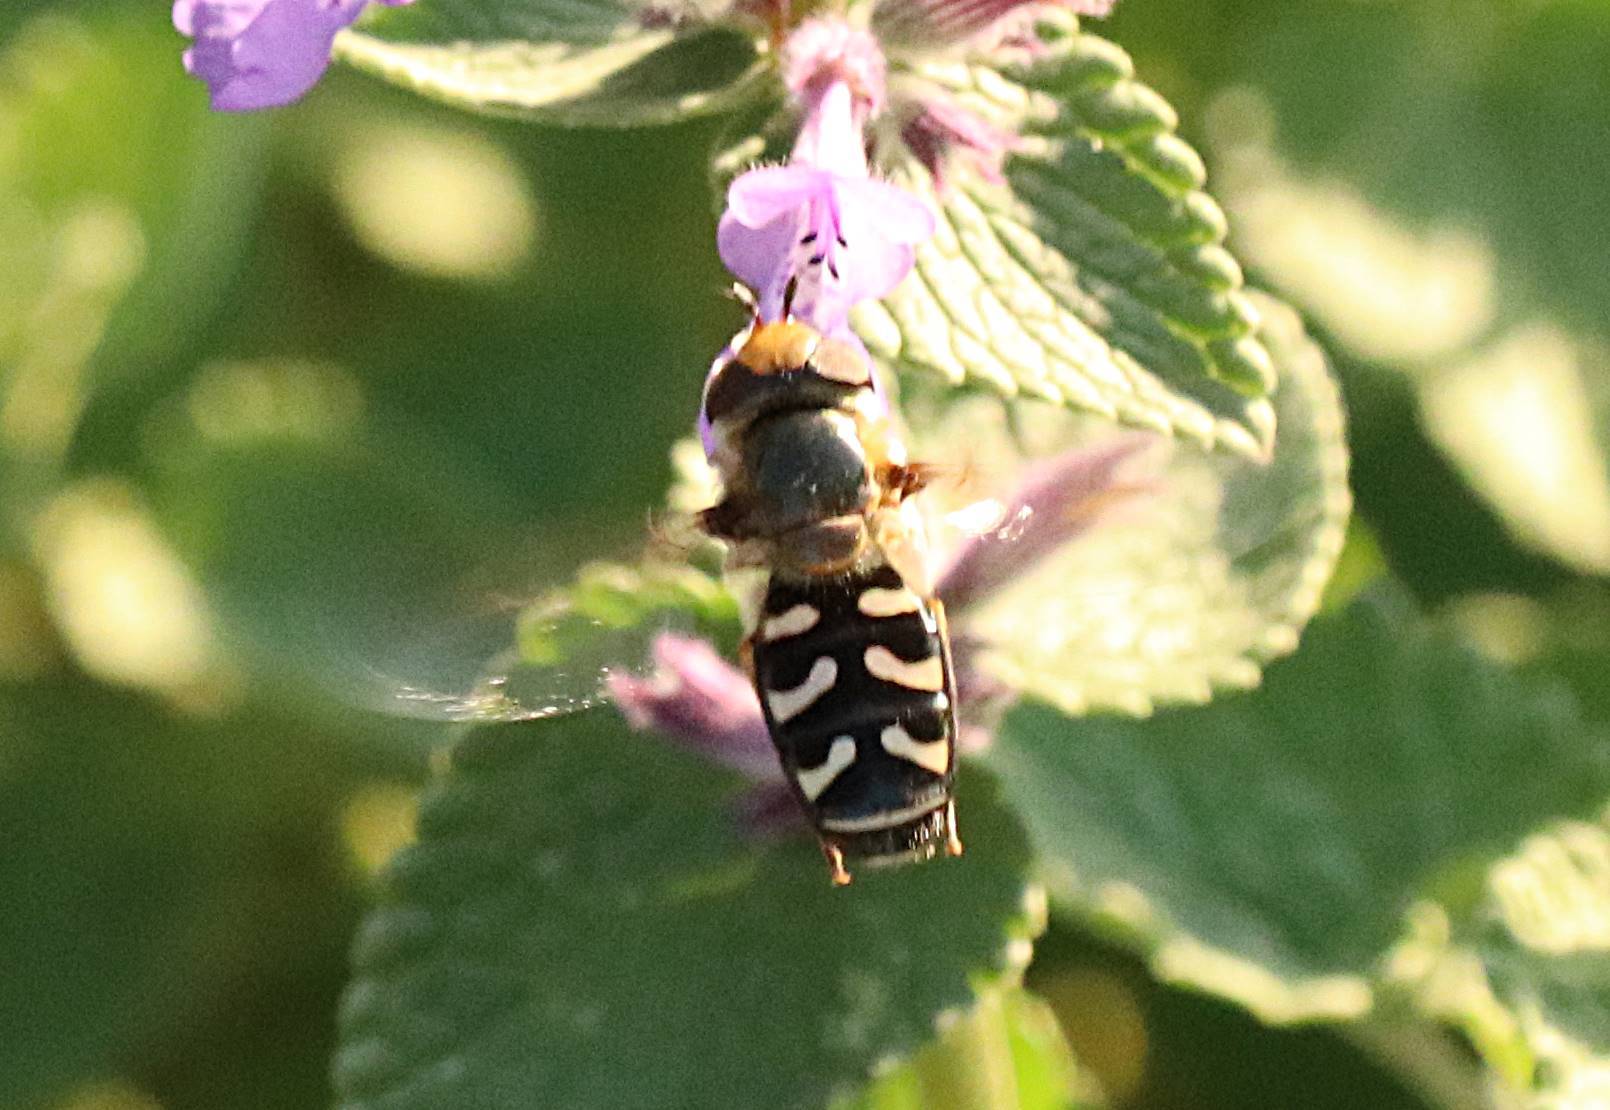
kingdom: Animalia
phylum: Arthropoda
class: Insecta
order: Diptera
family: Syrphidae
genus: Scaeva
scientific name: Scaeva pyrastri
